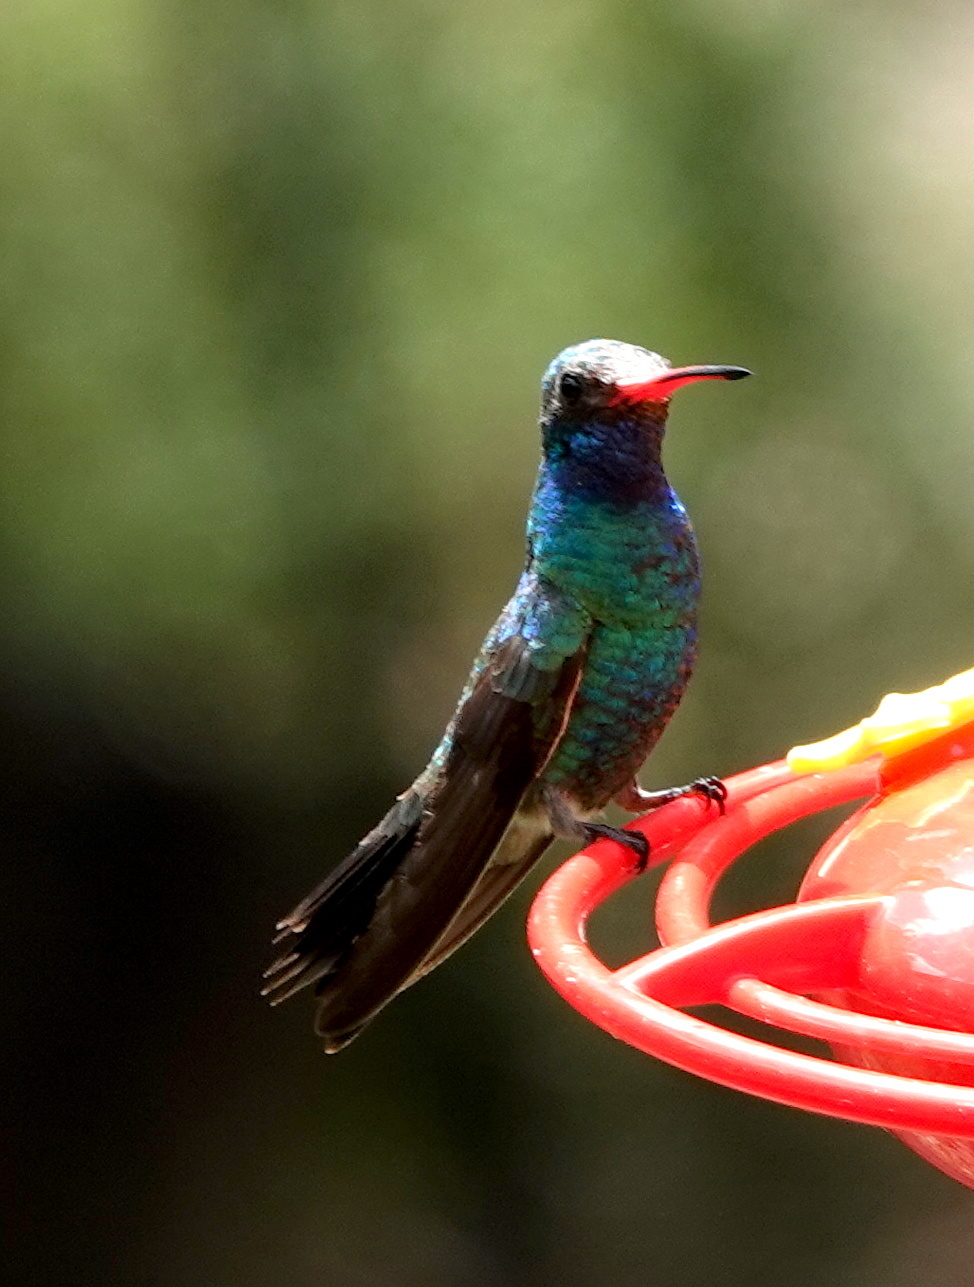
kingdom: Animalia
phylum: Chordata
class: Aves
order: Apodiformes
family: Trochilidae
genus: Cynanthus
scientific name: Cynanthus latirostris
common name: Broad-billed hummingbird
